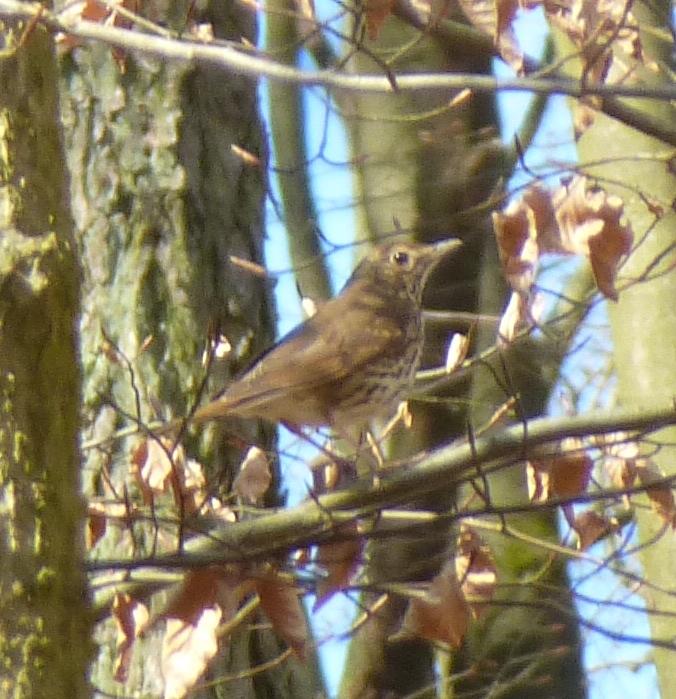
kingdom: Animalia
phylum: Chordata
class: Aves
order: Passeriformes
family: Turdidae
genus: Turdus
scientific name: Turdus philomelos
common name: Song thrush
